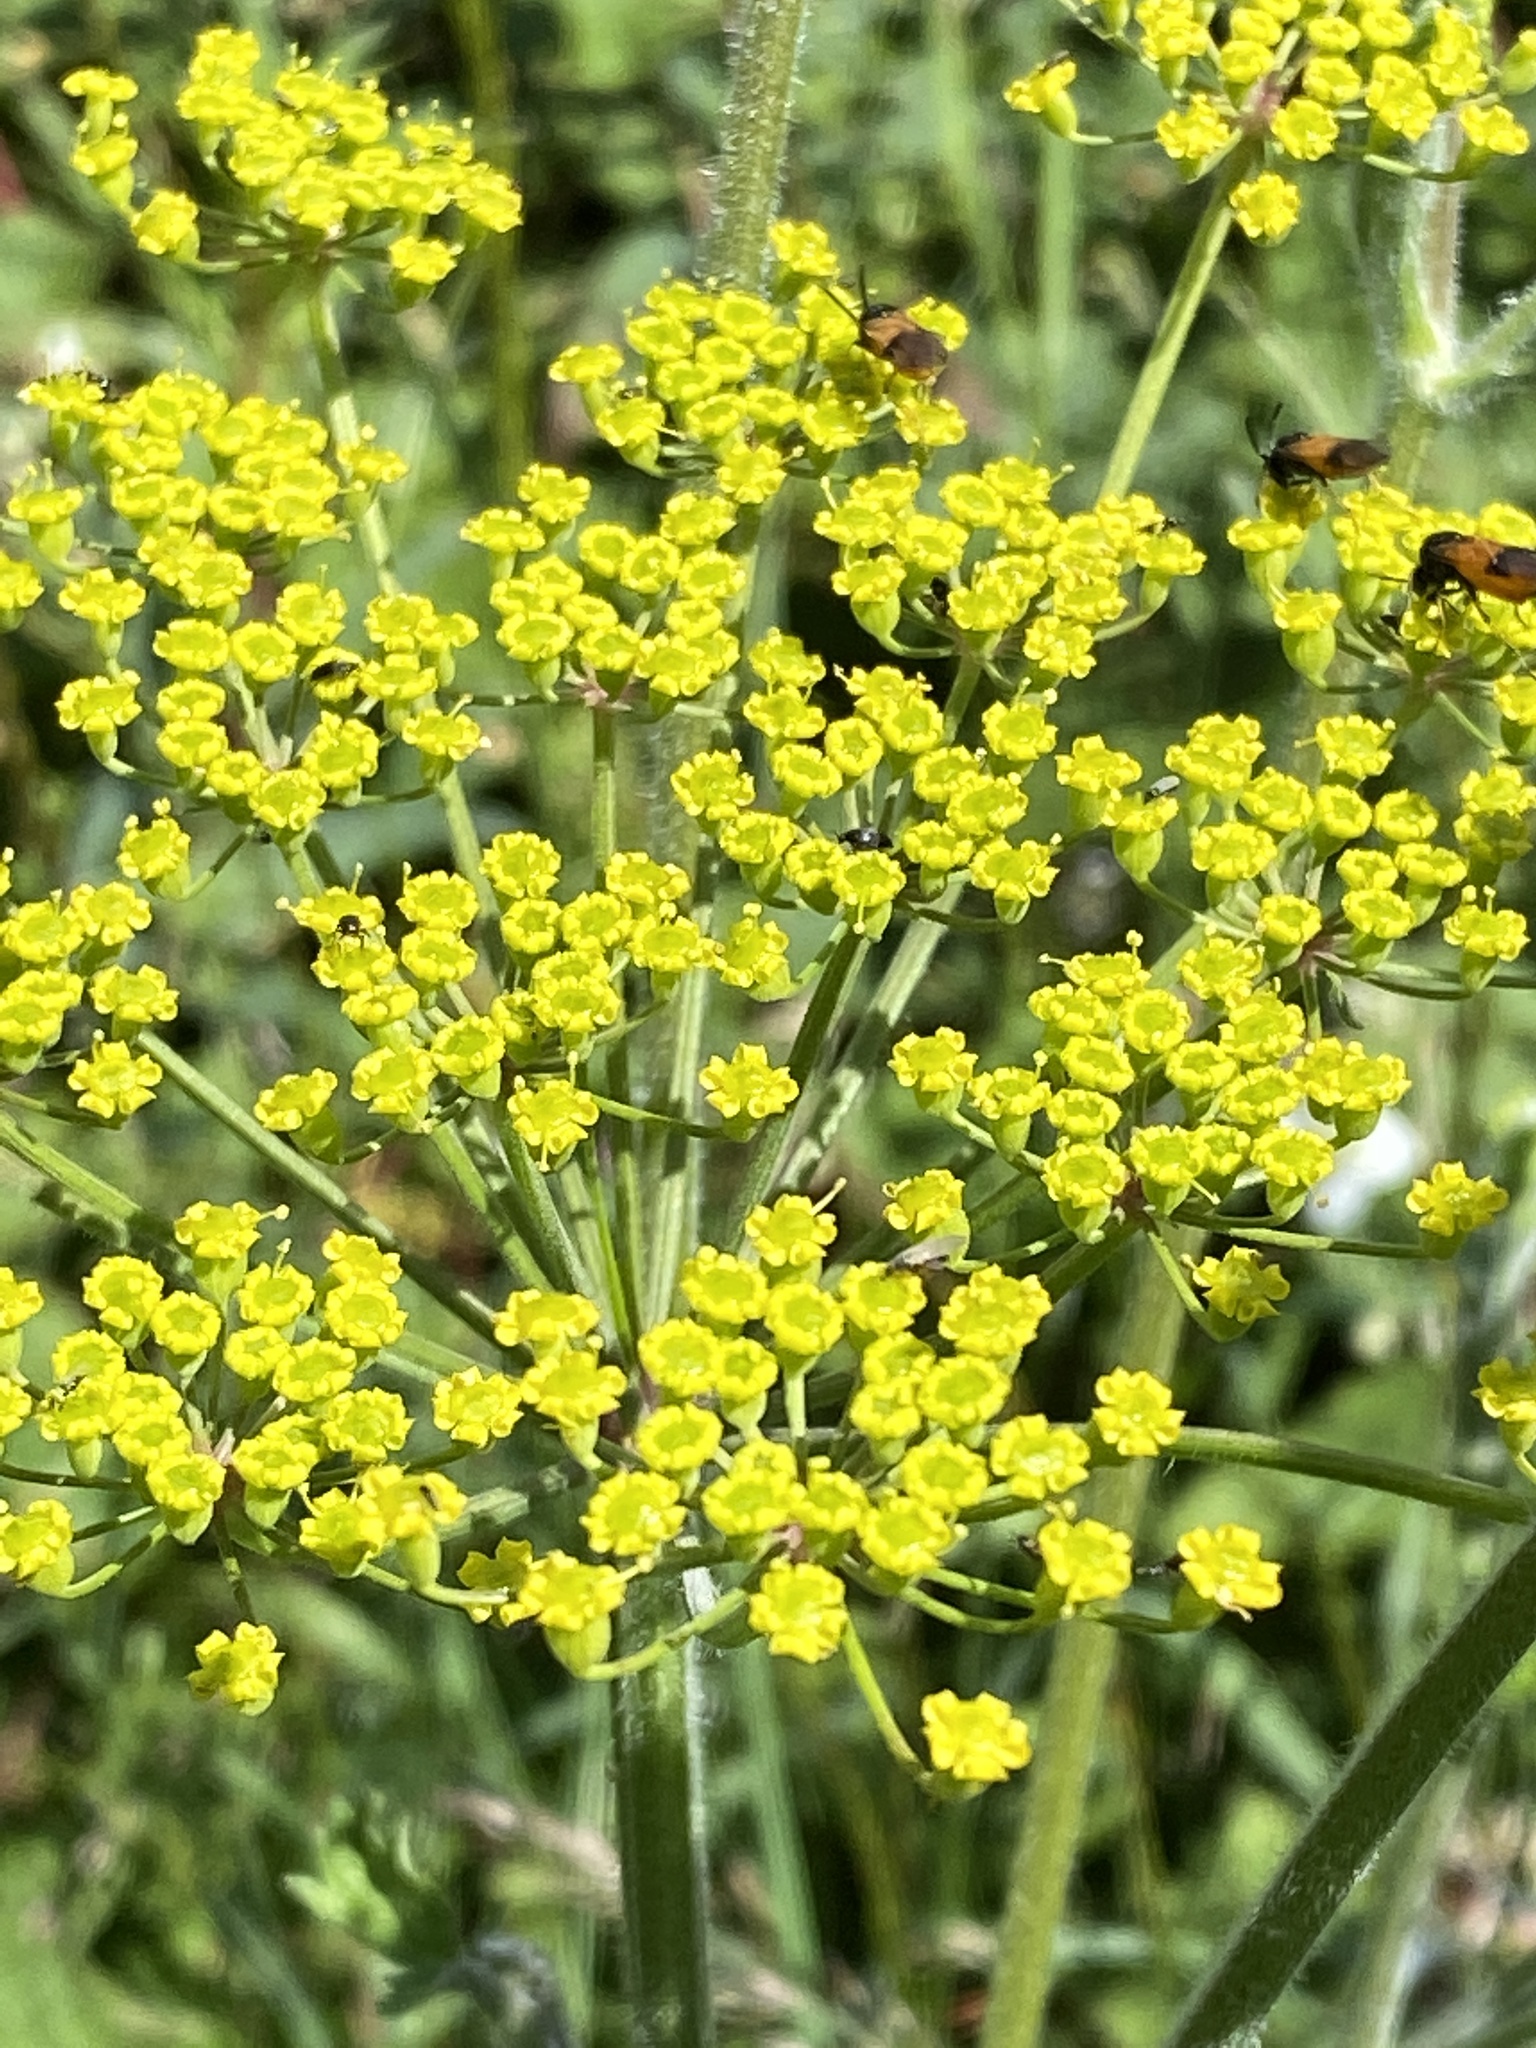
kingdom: Plantae
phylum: Tracheophyta
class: Magnoliopsida
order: Apiales
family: Apiaceae
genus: Pastinaca
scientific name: Pastinaca sativa
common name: Wild parsnip
